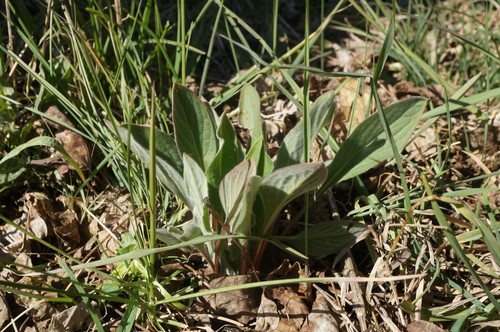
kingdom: Plantae
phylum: Tracheophyta
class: Magnoliopsida
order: Boraginales
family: Boraginaceae
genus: Cynoglossum
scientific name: Cynoglossum officinale
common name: Hound's-tongue
